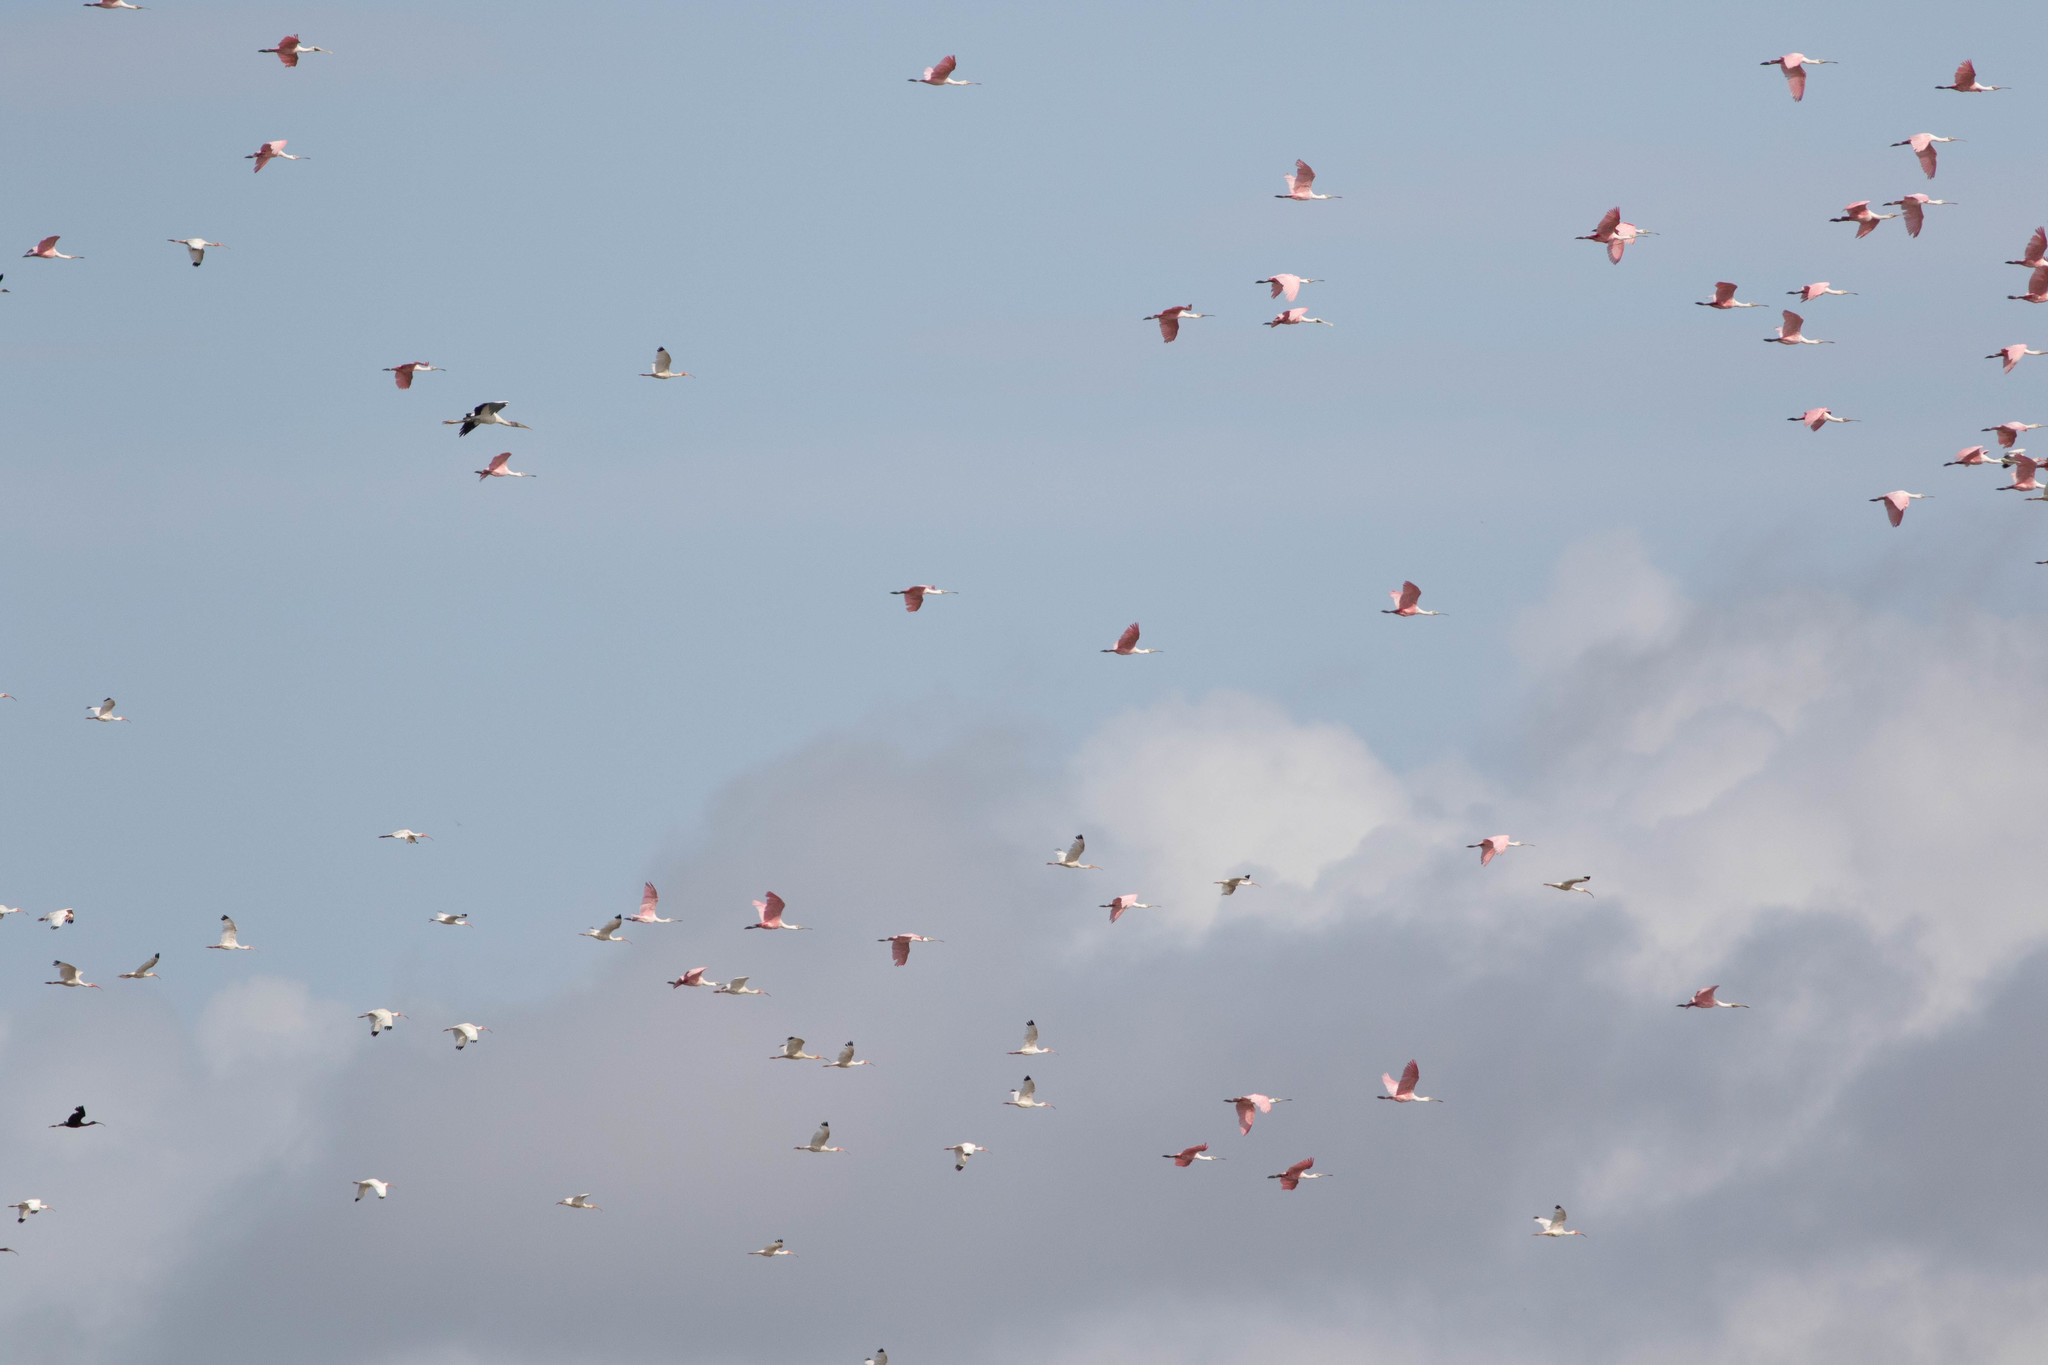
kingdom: Animalia
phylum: Chordata
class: Aves
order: Pelecaniformes
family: Threskiornithidae
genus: Platalea
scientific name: Platalea ajaja
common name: Roseate spoonbill
